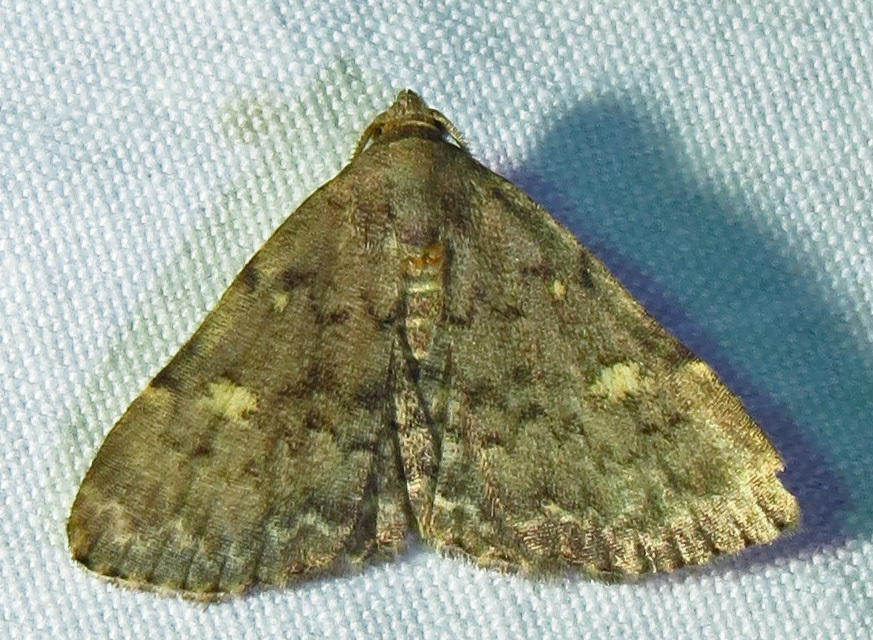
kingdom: Animalia
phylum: Arthropoda
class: Insecta
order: Lepidoptera
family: Erebidae
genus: Idia
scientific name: Idia aemula
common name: Common idia moth
